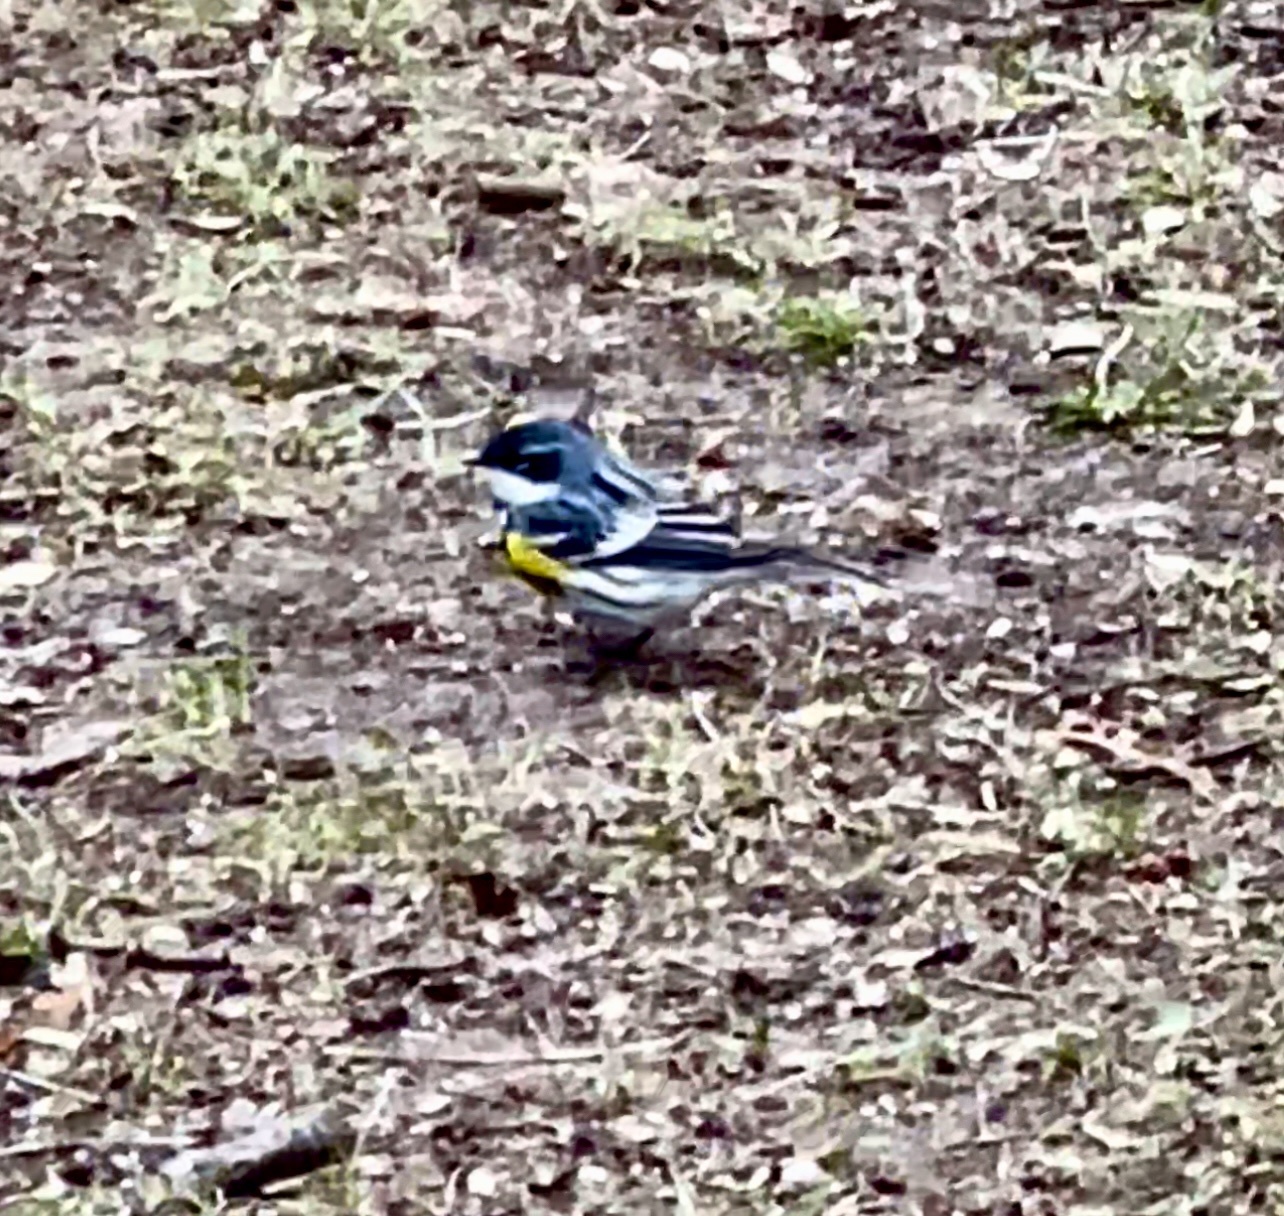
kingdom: Animalia
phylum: Chordata
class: Aves
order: Passeriformes
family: Parulidae
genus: Setophaga
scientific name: Setophaga coronata
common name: Myrtle warbler
